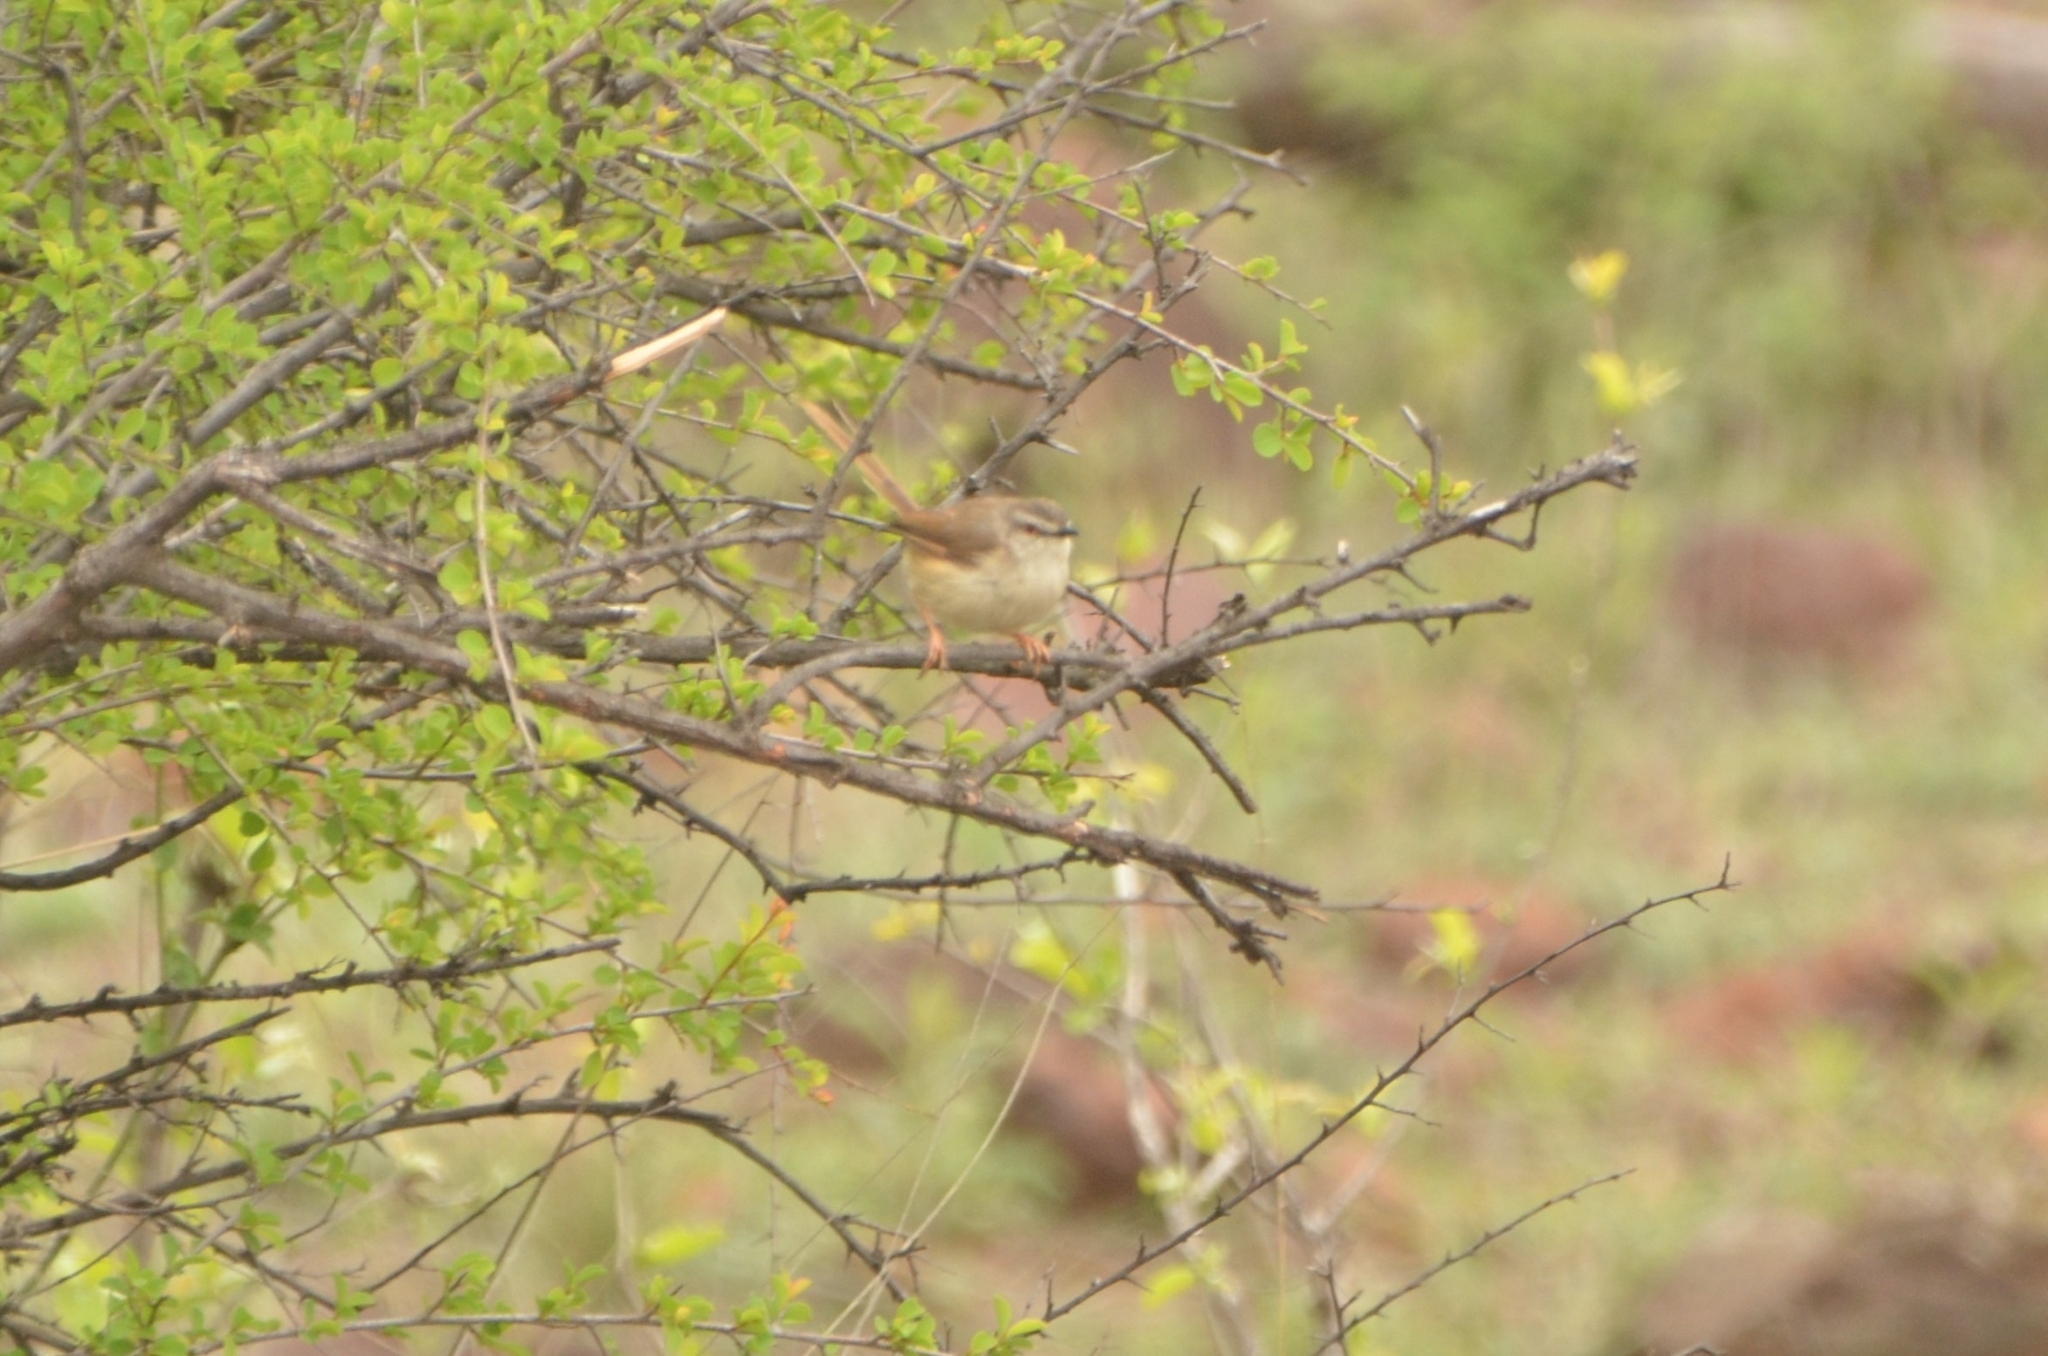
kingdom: Animalia
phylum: Chordata
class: Aves
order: Passeriformes
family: Cisticolidae
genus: Prinia
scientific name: Prinia subflava
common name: Tawny-flanked prinia
